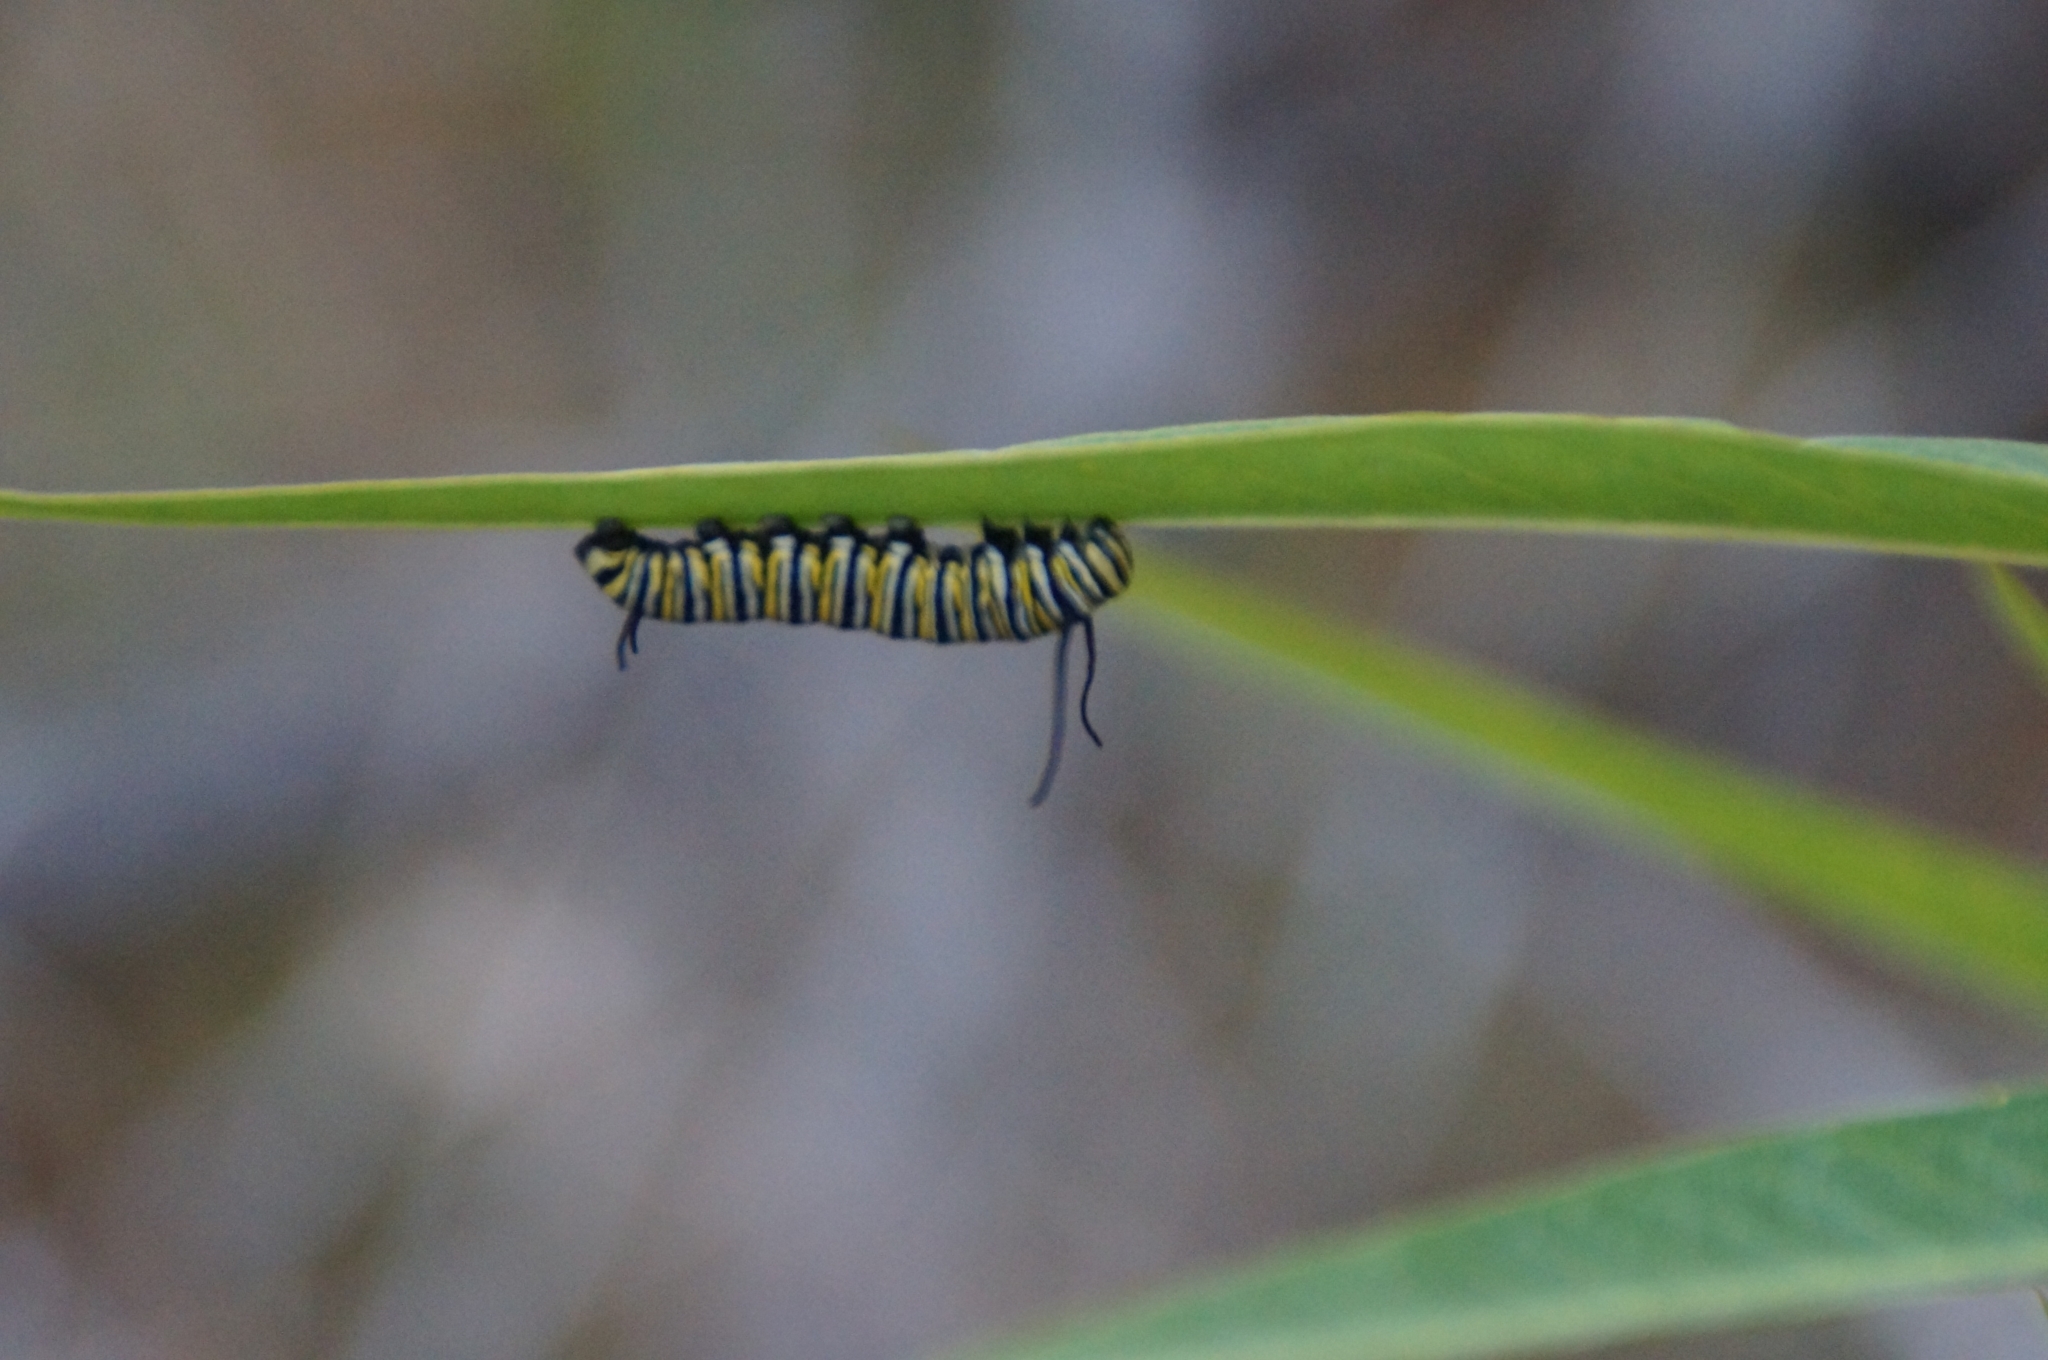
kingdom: Animalia
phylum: Arthropoda
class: Insecta
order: Lepidoptera
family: Nymphalidae
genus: Danaus
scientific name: Danaus plexippus
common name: Monarch
